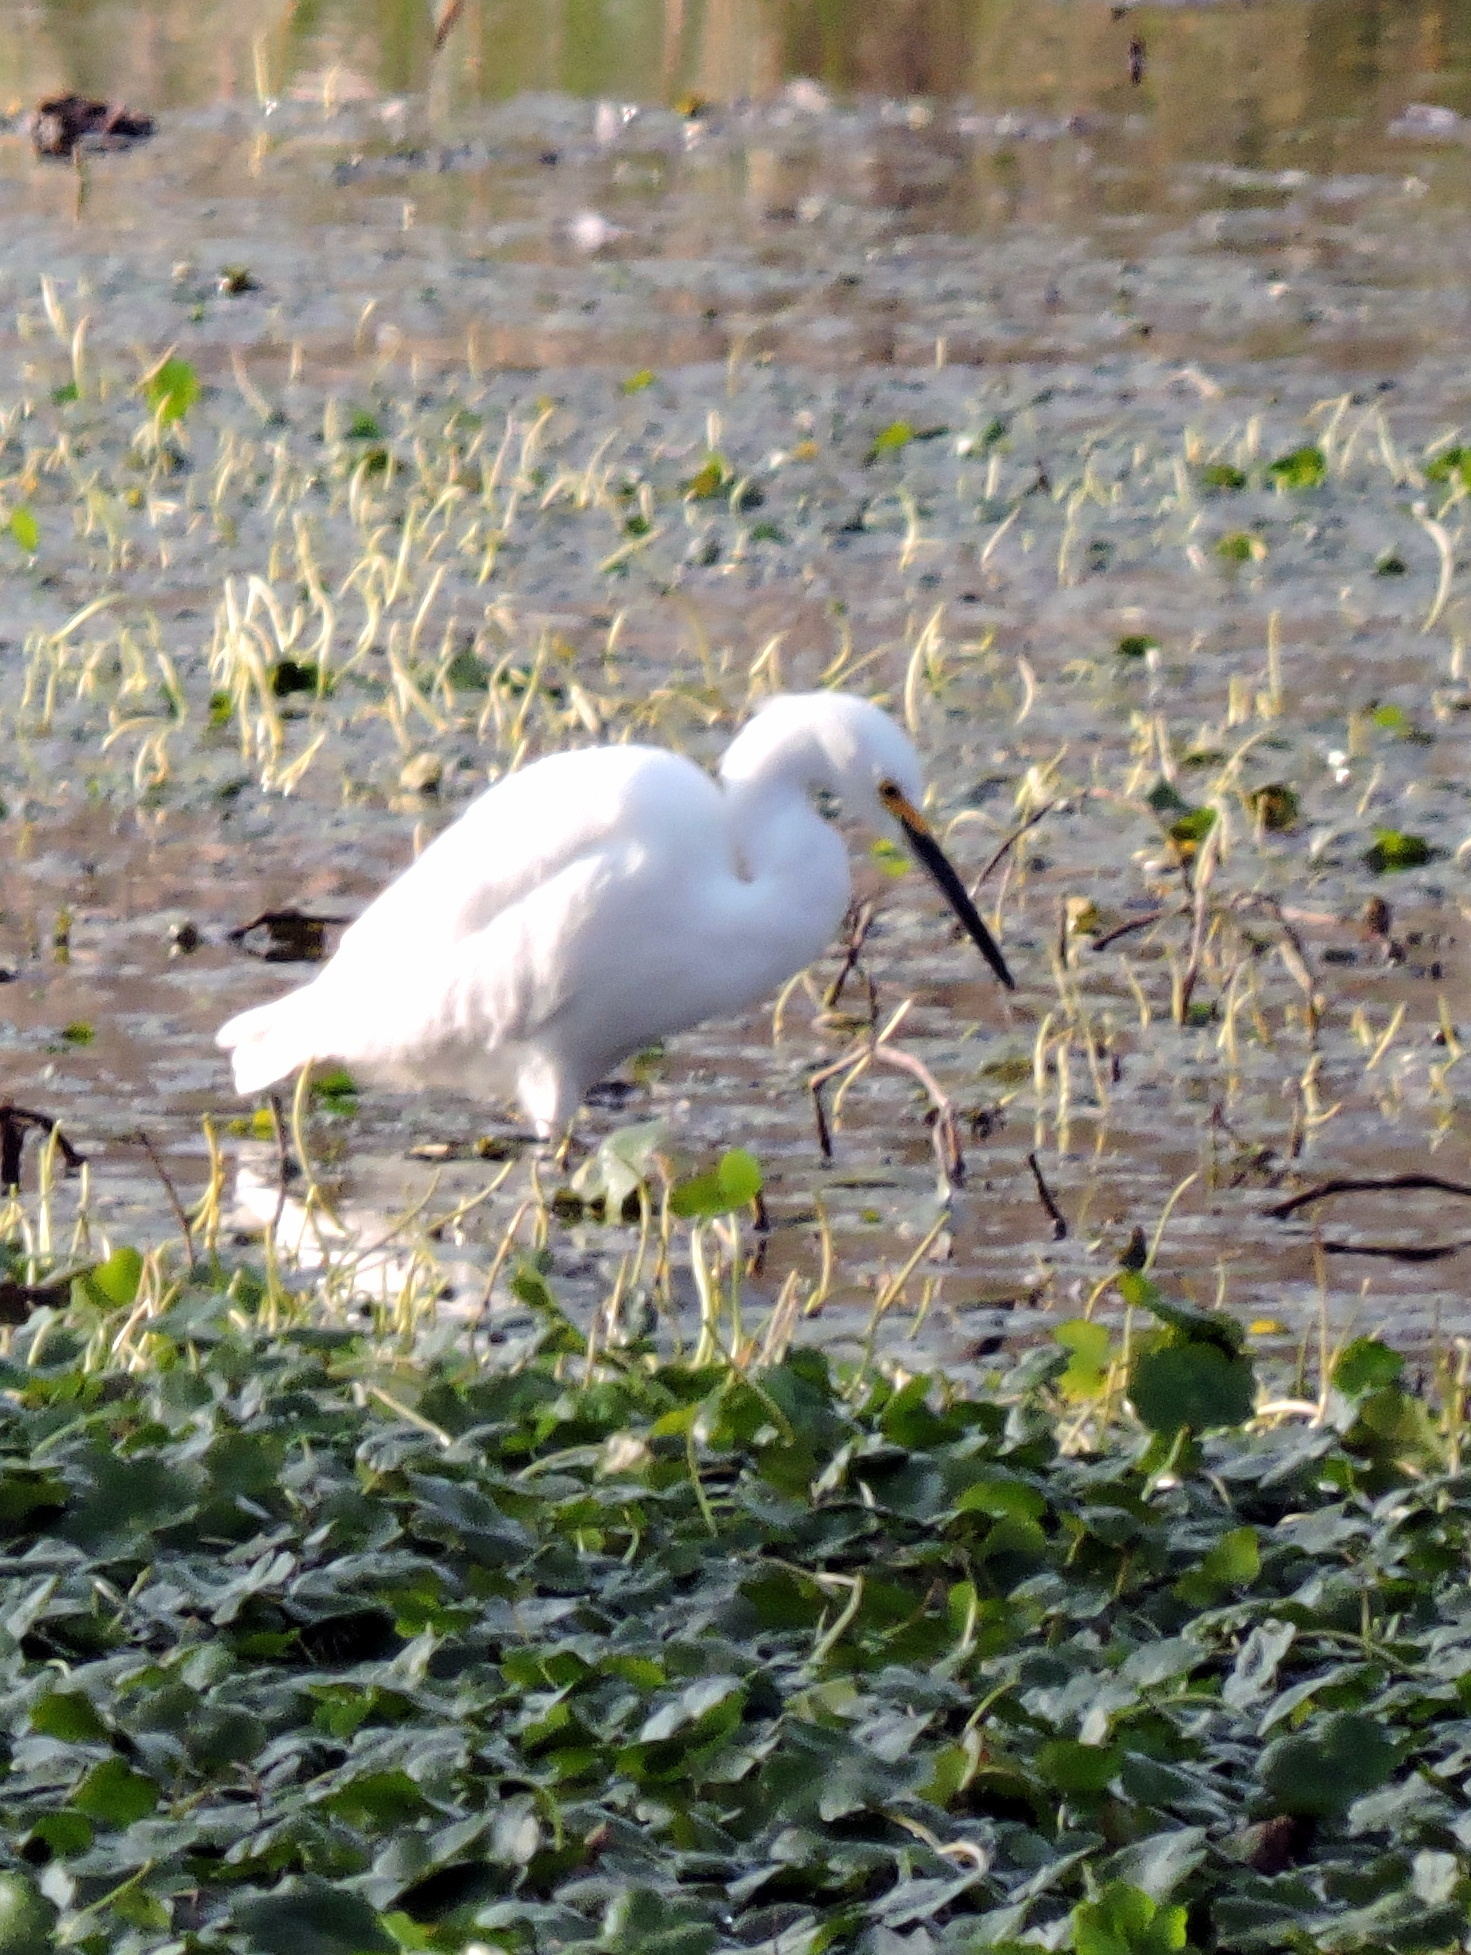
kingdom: Animalia
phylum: Chordata
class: Aves
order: Pelecaniformes
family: Ardeidae
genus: Egretta
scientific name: Egretta thula
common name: Snowy egret
